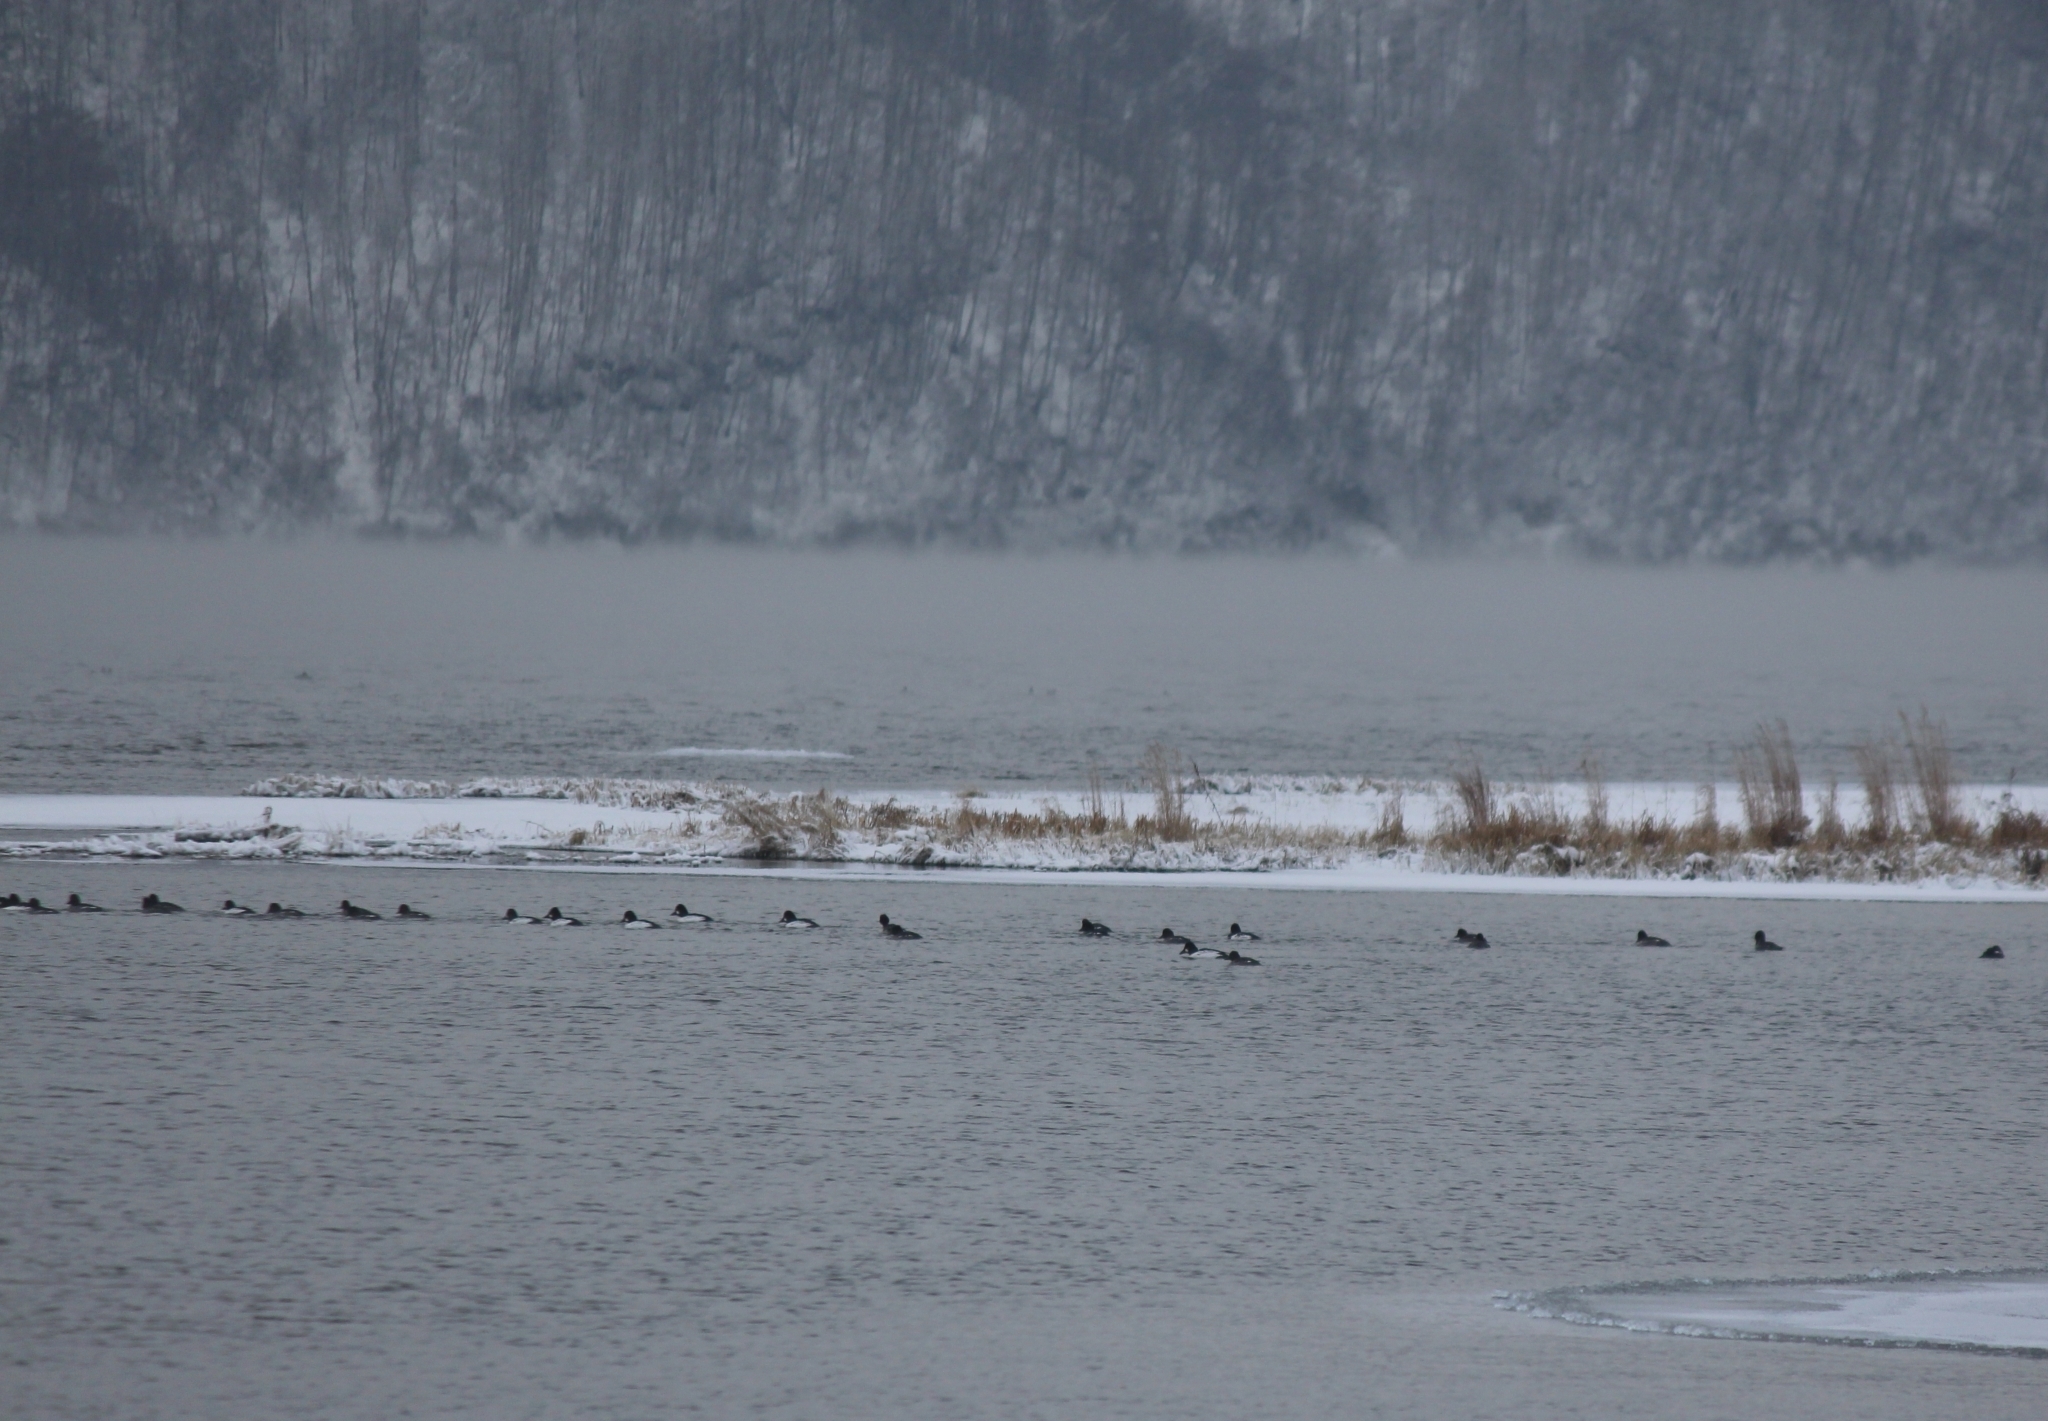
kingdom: Animalia
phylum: Chordata
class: Aves
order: Anseriformes
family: Anatidae
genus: Bucephala
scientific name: Bucephala clangula
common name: Common goldeneye
